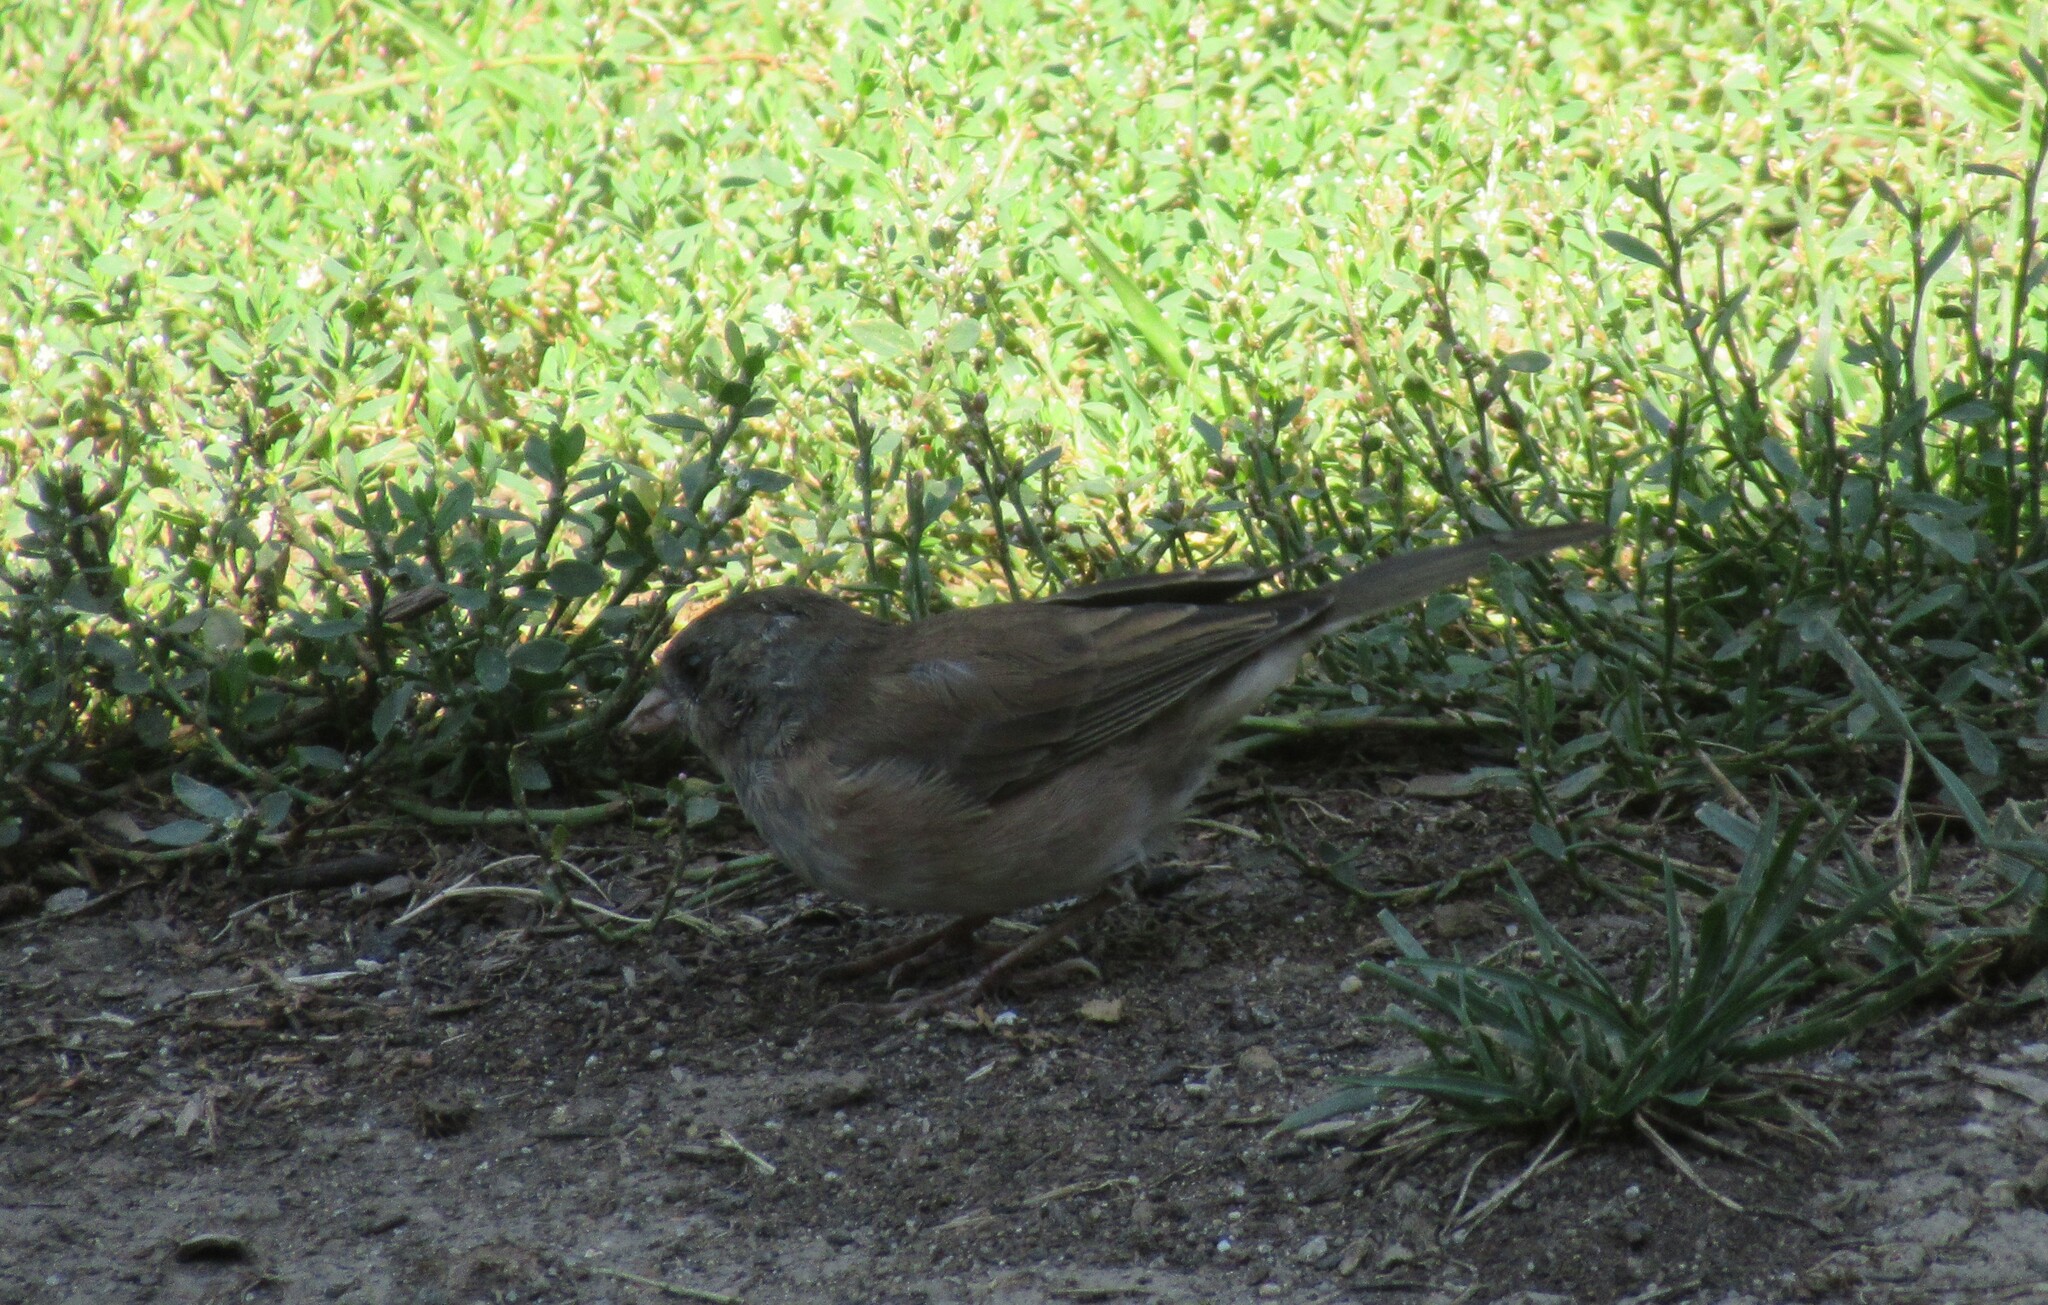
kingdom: Animalia
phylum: Chordata
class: Aves
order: Passeriformes
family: Passerellidae
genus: Junco
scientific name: Junco hyemalis
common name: Dark-eyed junco
